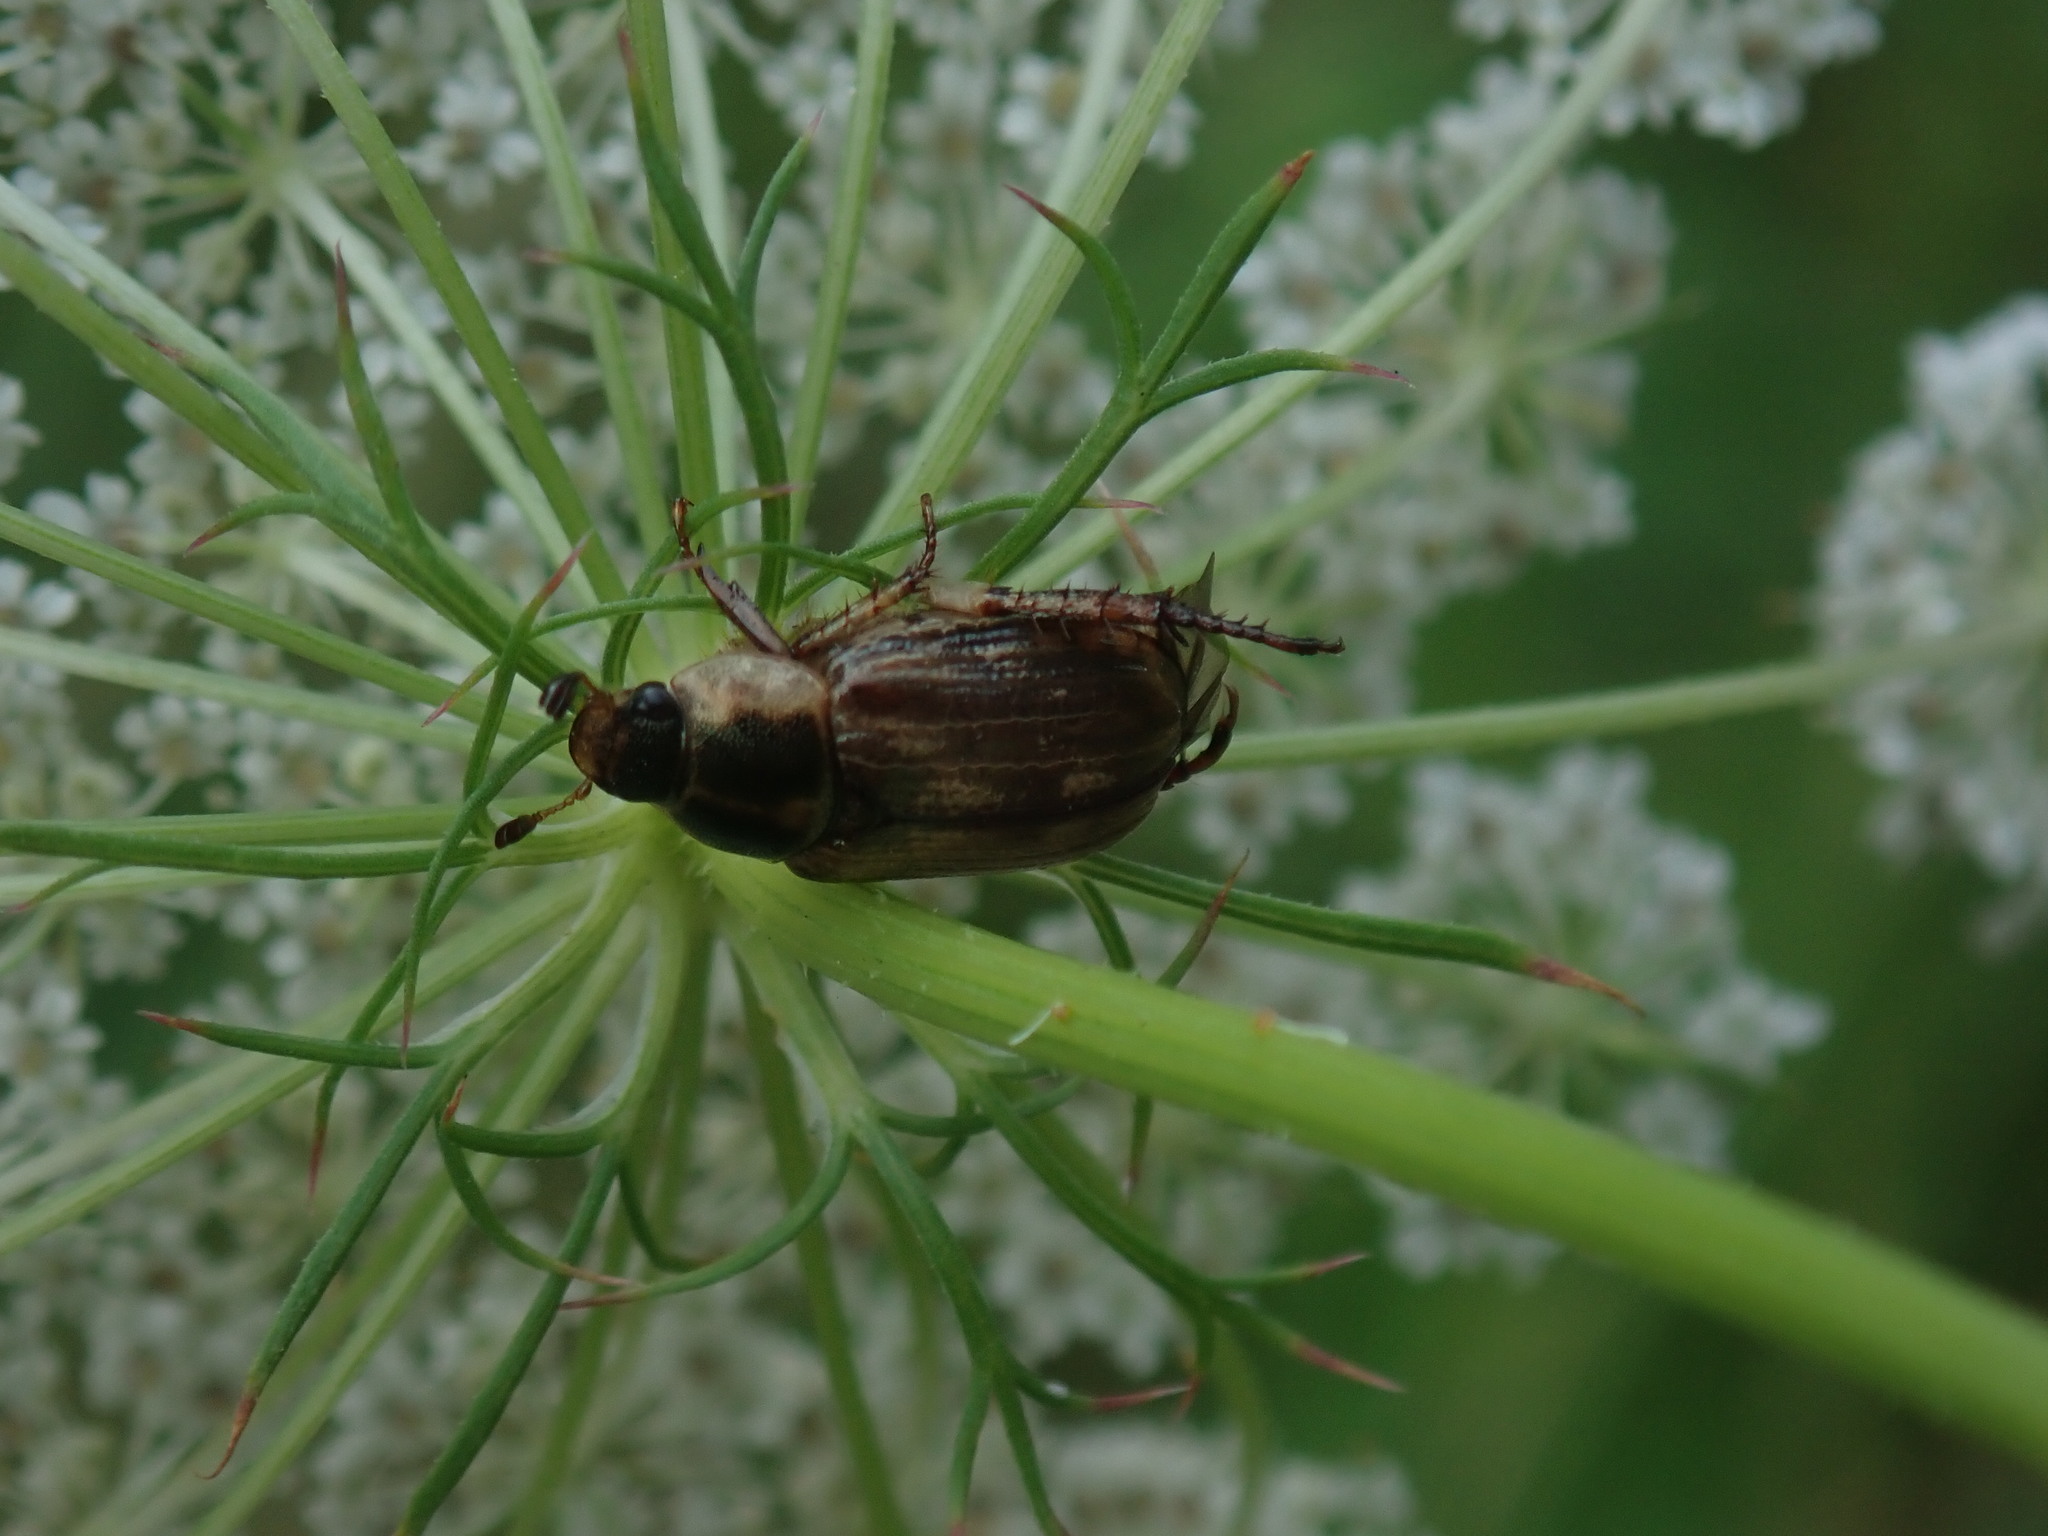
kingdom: Animalia
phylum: Arthropoda
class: Insecta
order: Coleoptera
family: Scarabaeidae
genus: Exomala
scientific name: Exomala orientalis
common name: Oriental beetle
